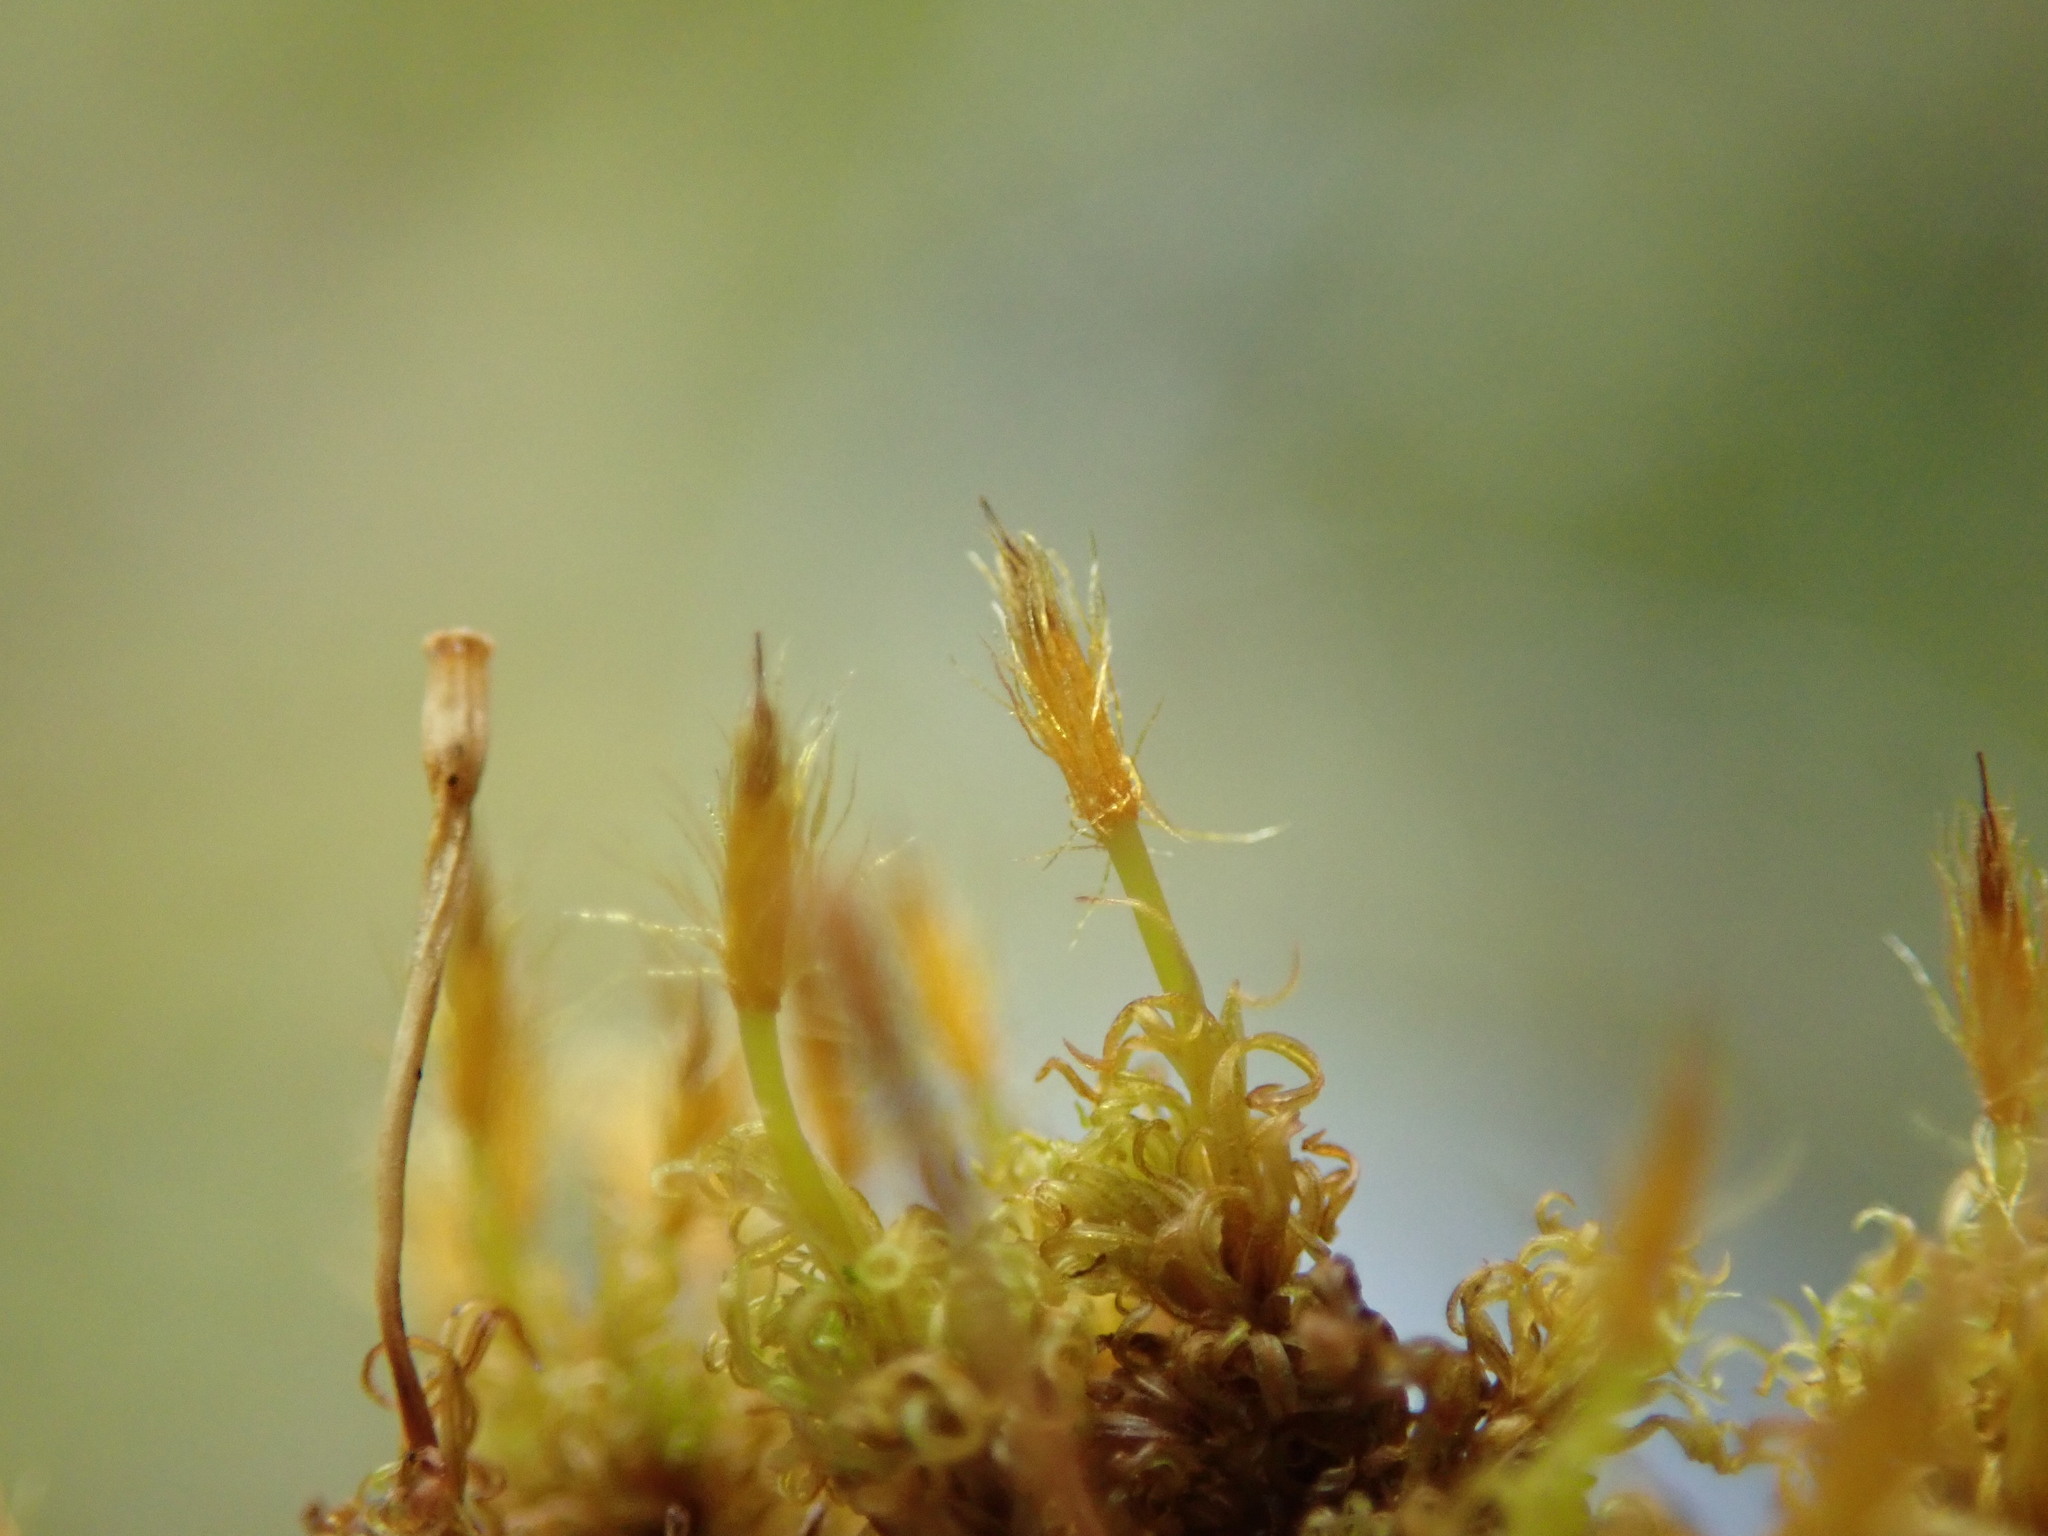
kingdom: Plantae
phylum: Bryophyta
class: Bryopsida
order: Orthotrichales
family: Orthotrichaceae
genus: Ulota
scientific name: Ulota obtusiuscula
